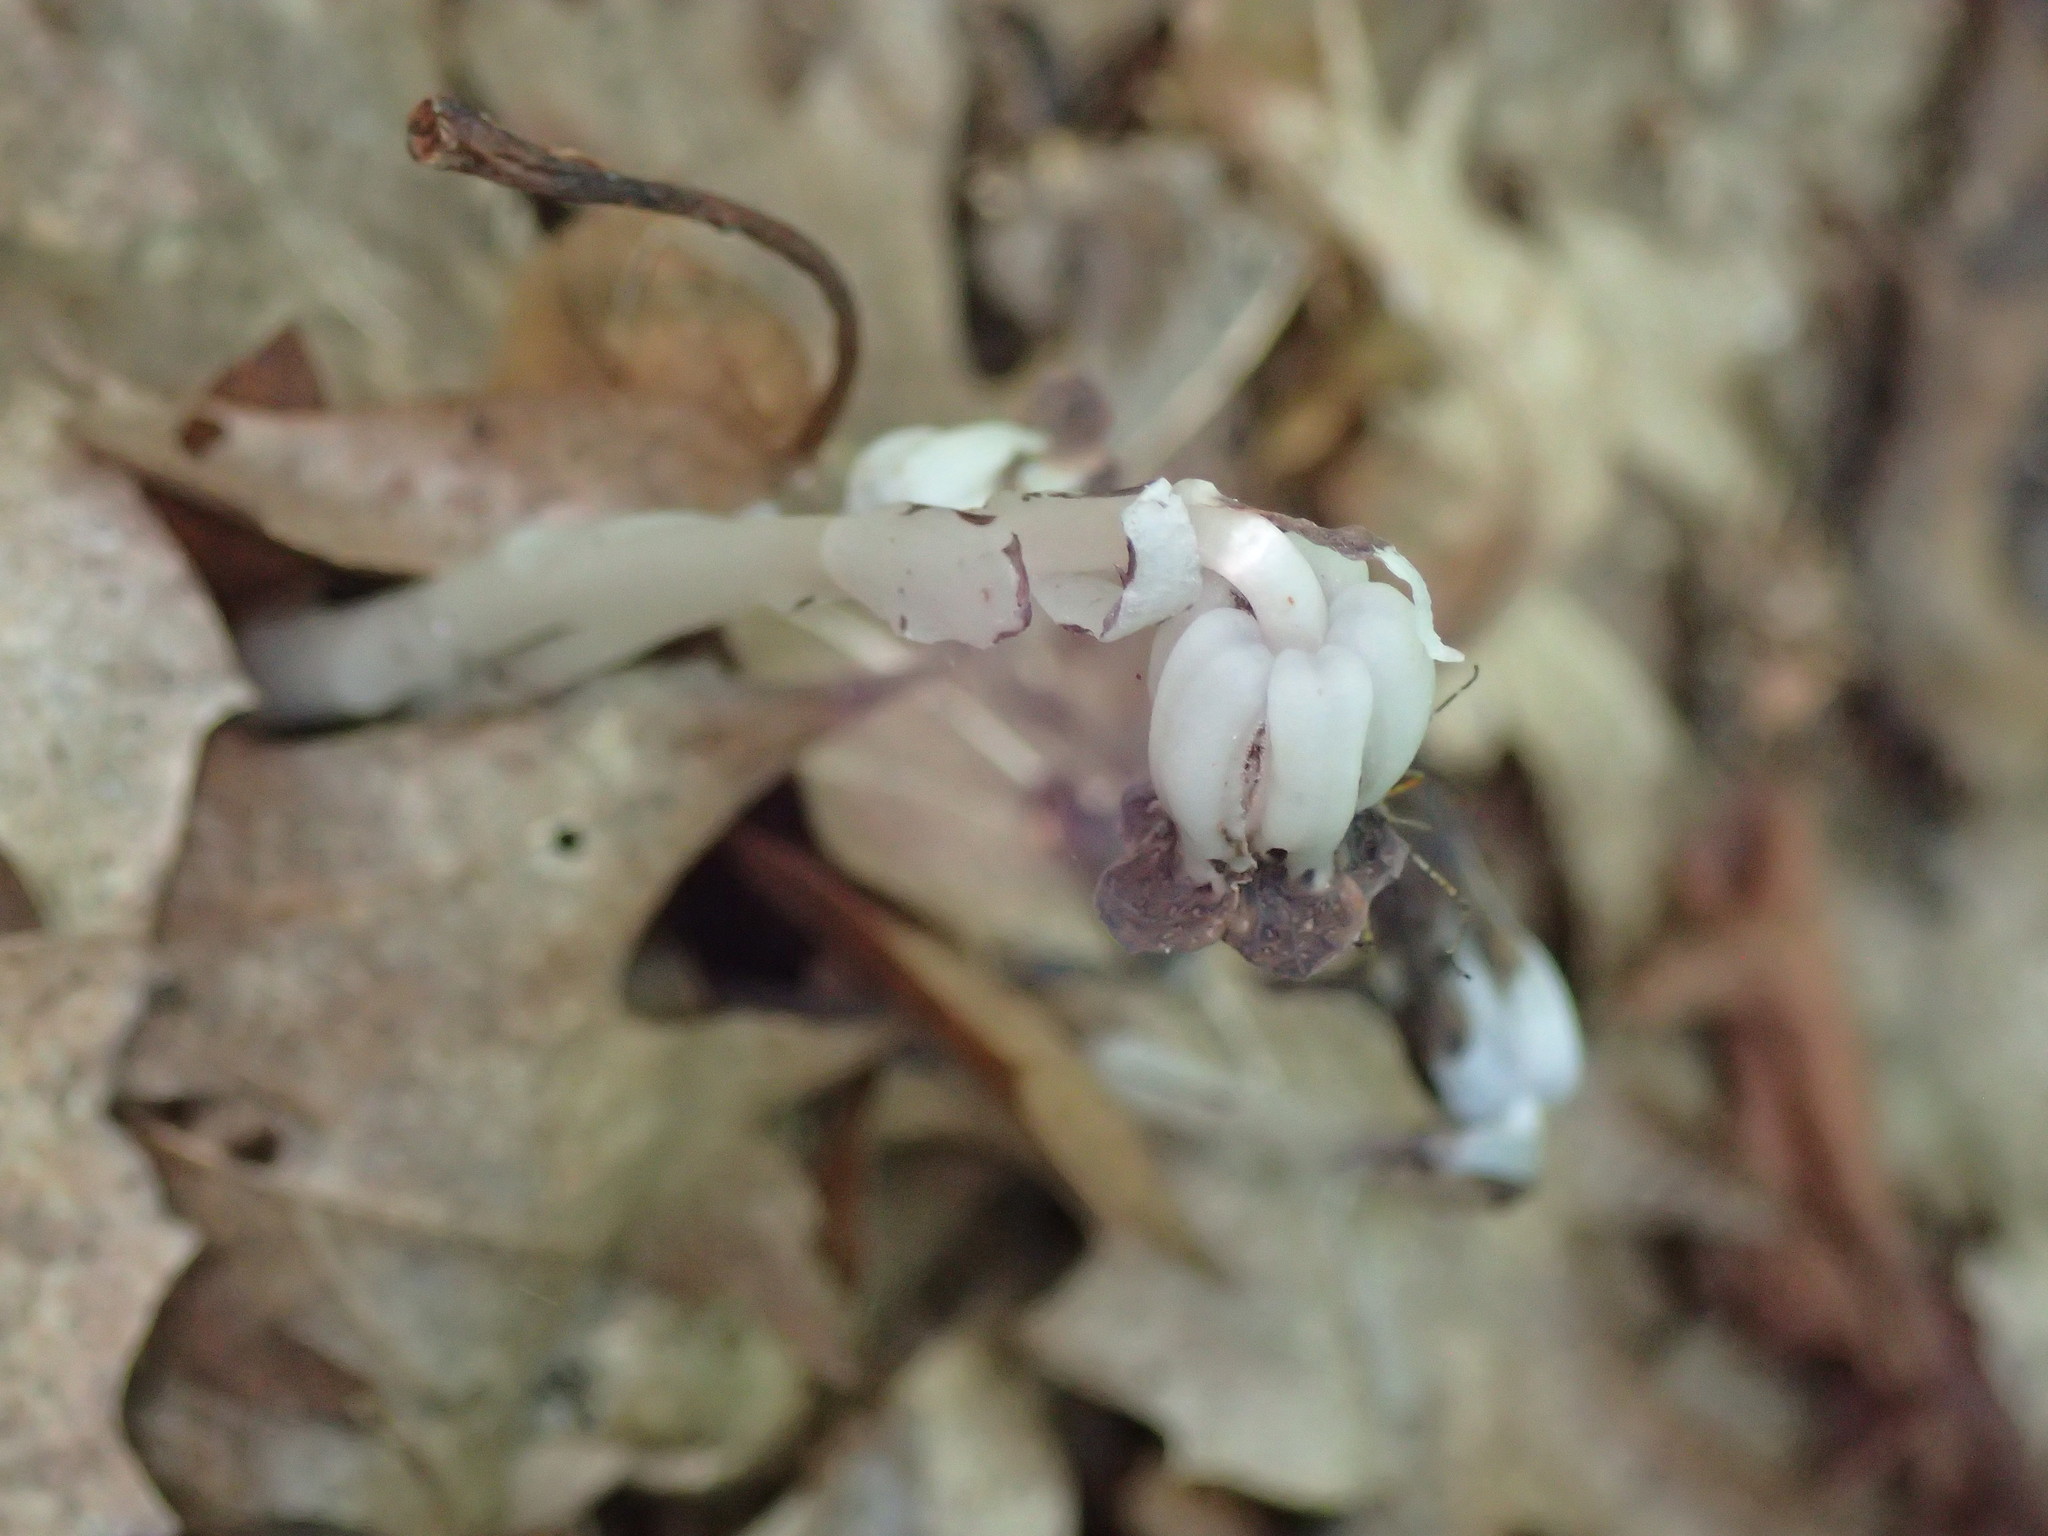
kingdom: Plantae
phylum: Tracheophyta
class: Magnoliopsida
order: Ericales
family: Ericaceae
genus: Monotropa
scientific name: Monotropa uniflora
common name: Convulsion root
